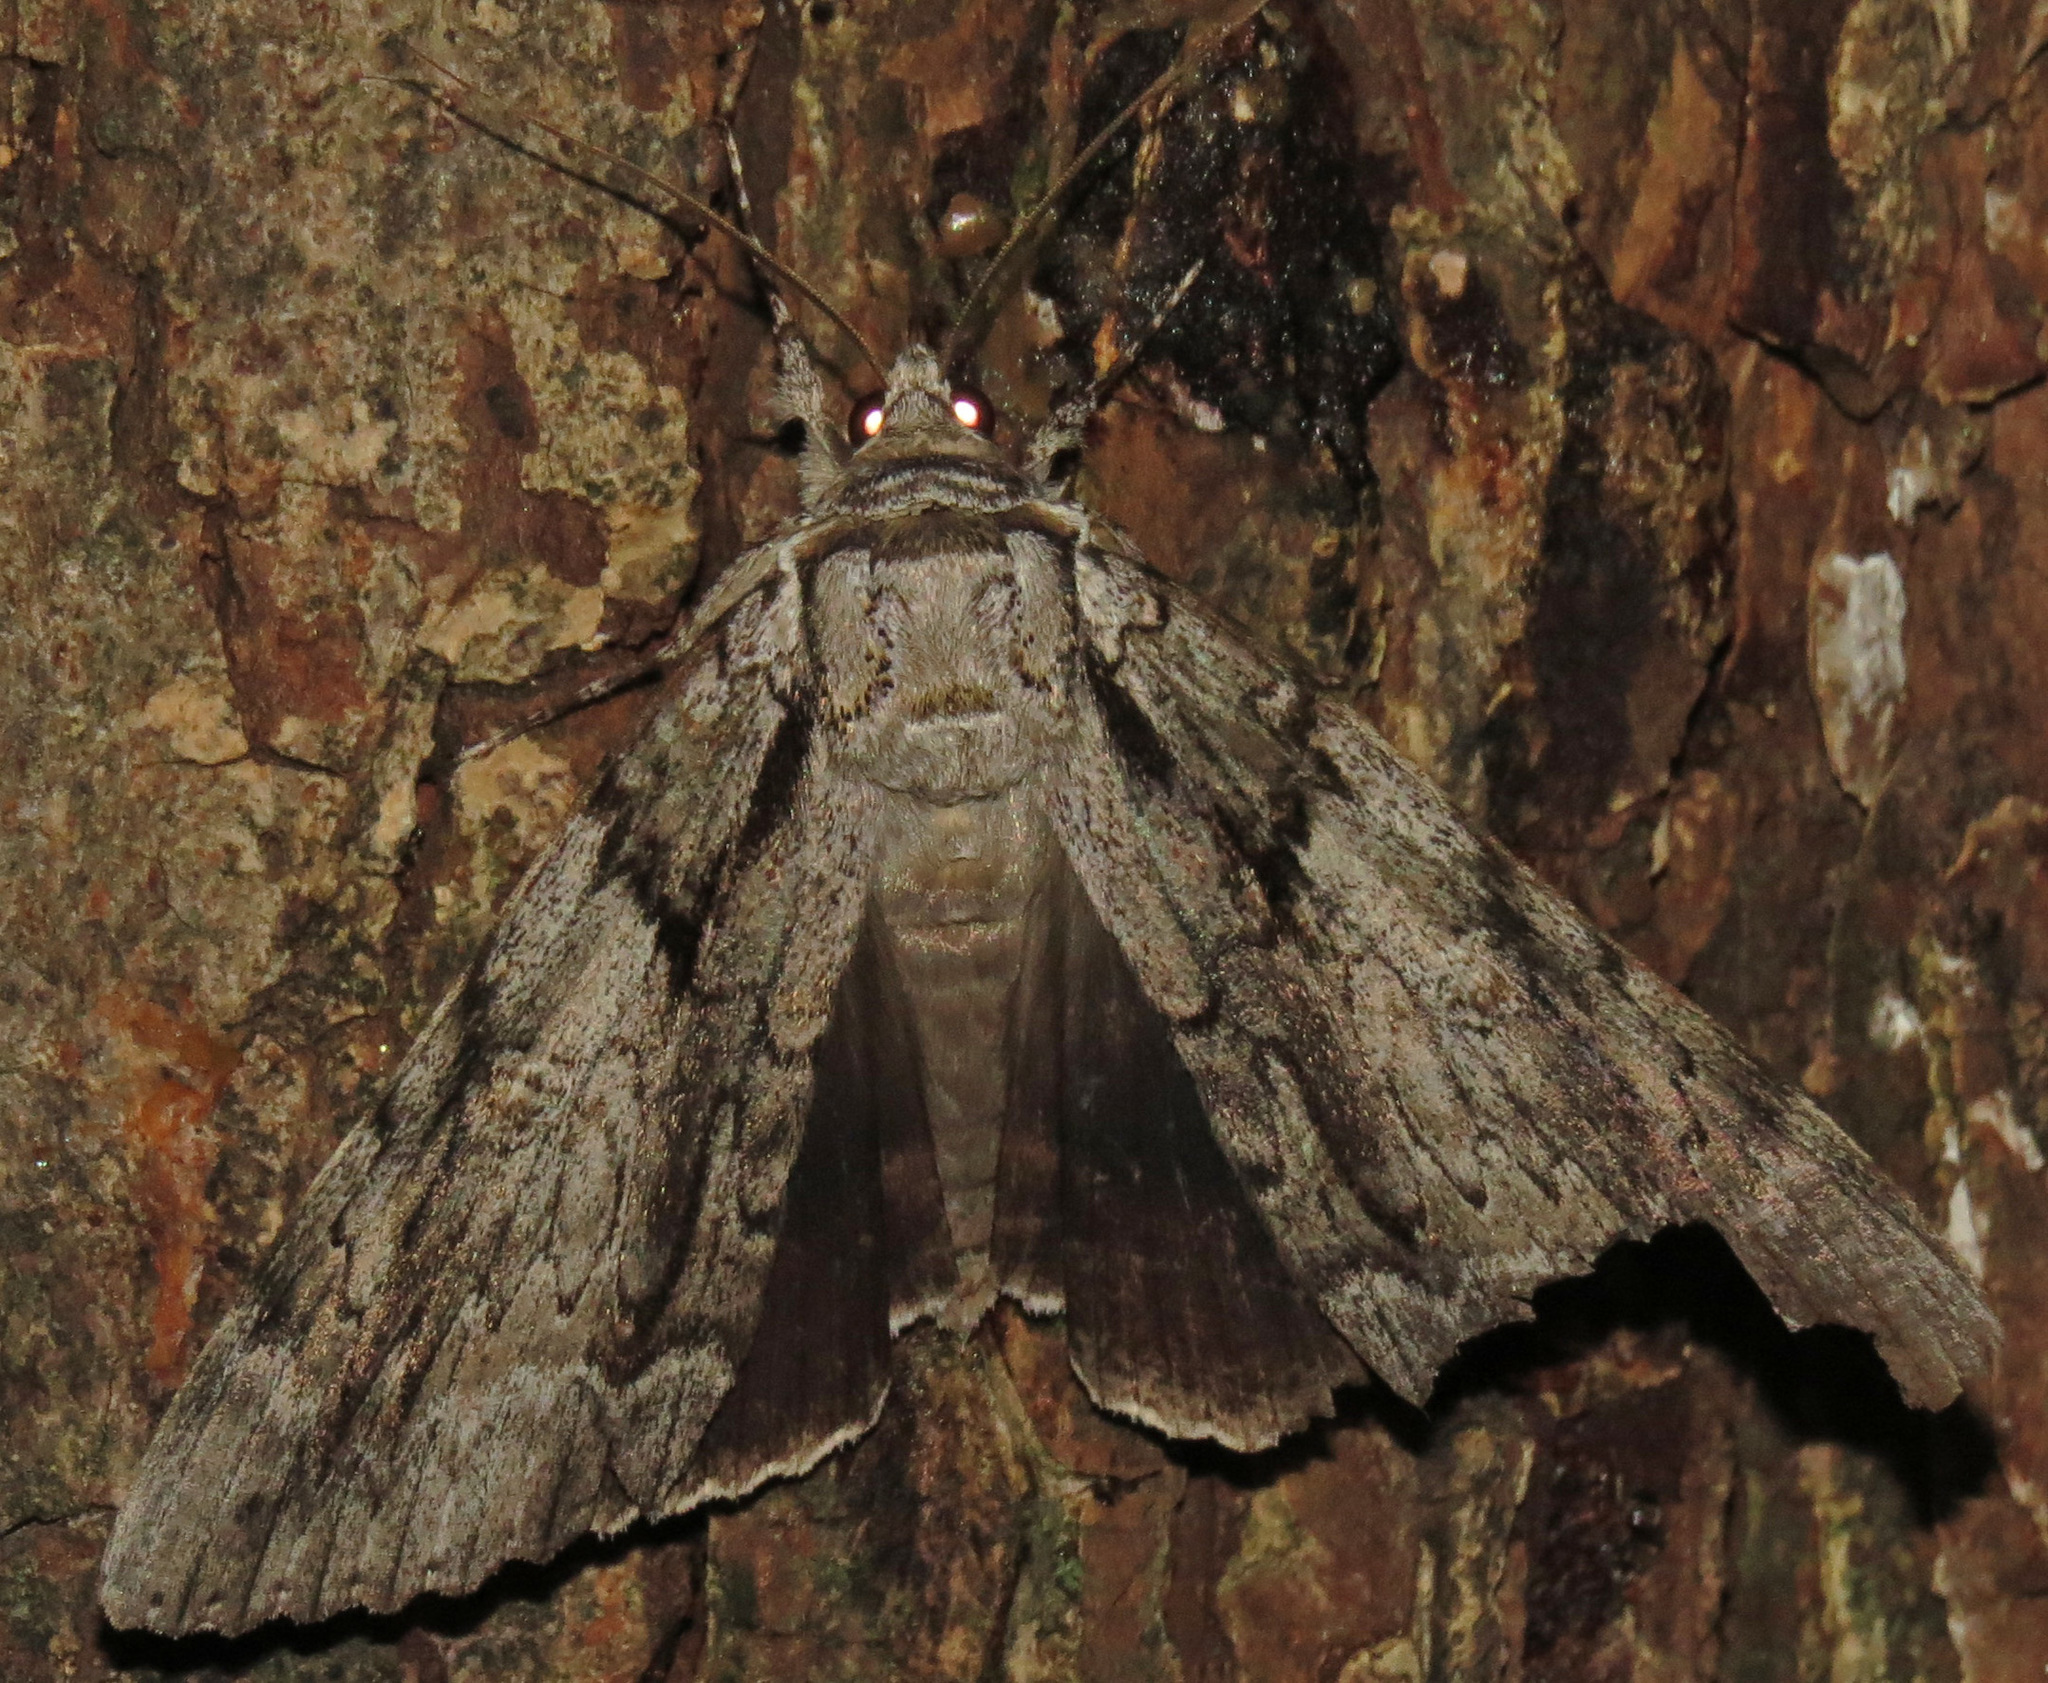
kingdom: Animalia
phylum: Arthropoda
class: Insecta
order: Lepidoptera
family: Erebidae
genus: Catocala
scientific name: Catocala vidua
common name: The widow
